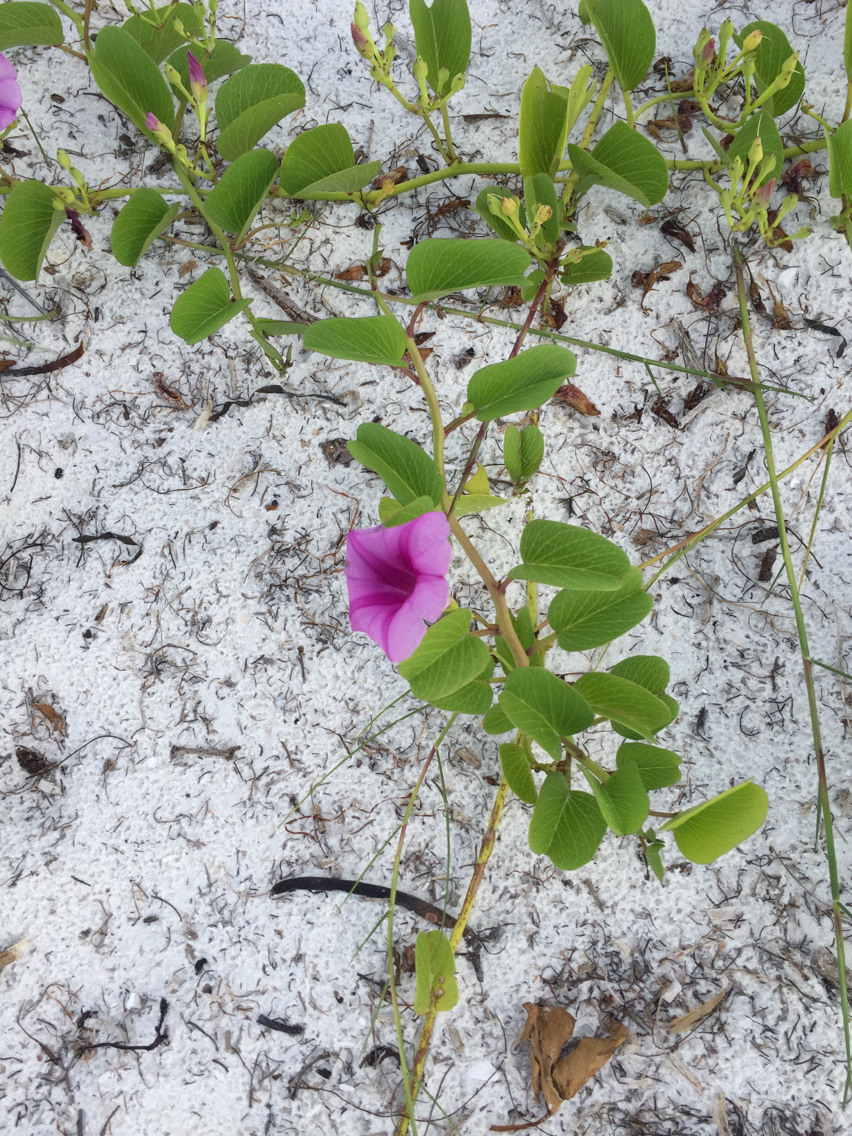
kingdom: Plantae
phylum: Tracheophyta
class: Magnoliopsida
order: Solanales
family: Convolvulaceae
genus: Ipomoea
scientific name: Ipomoea pes-caprae
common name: Beach morning glory
